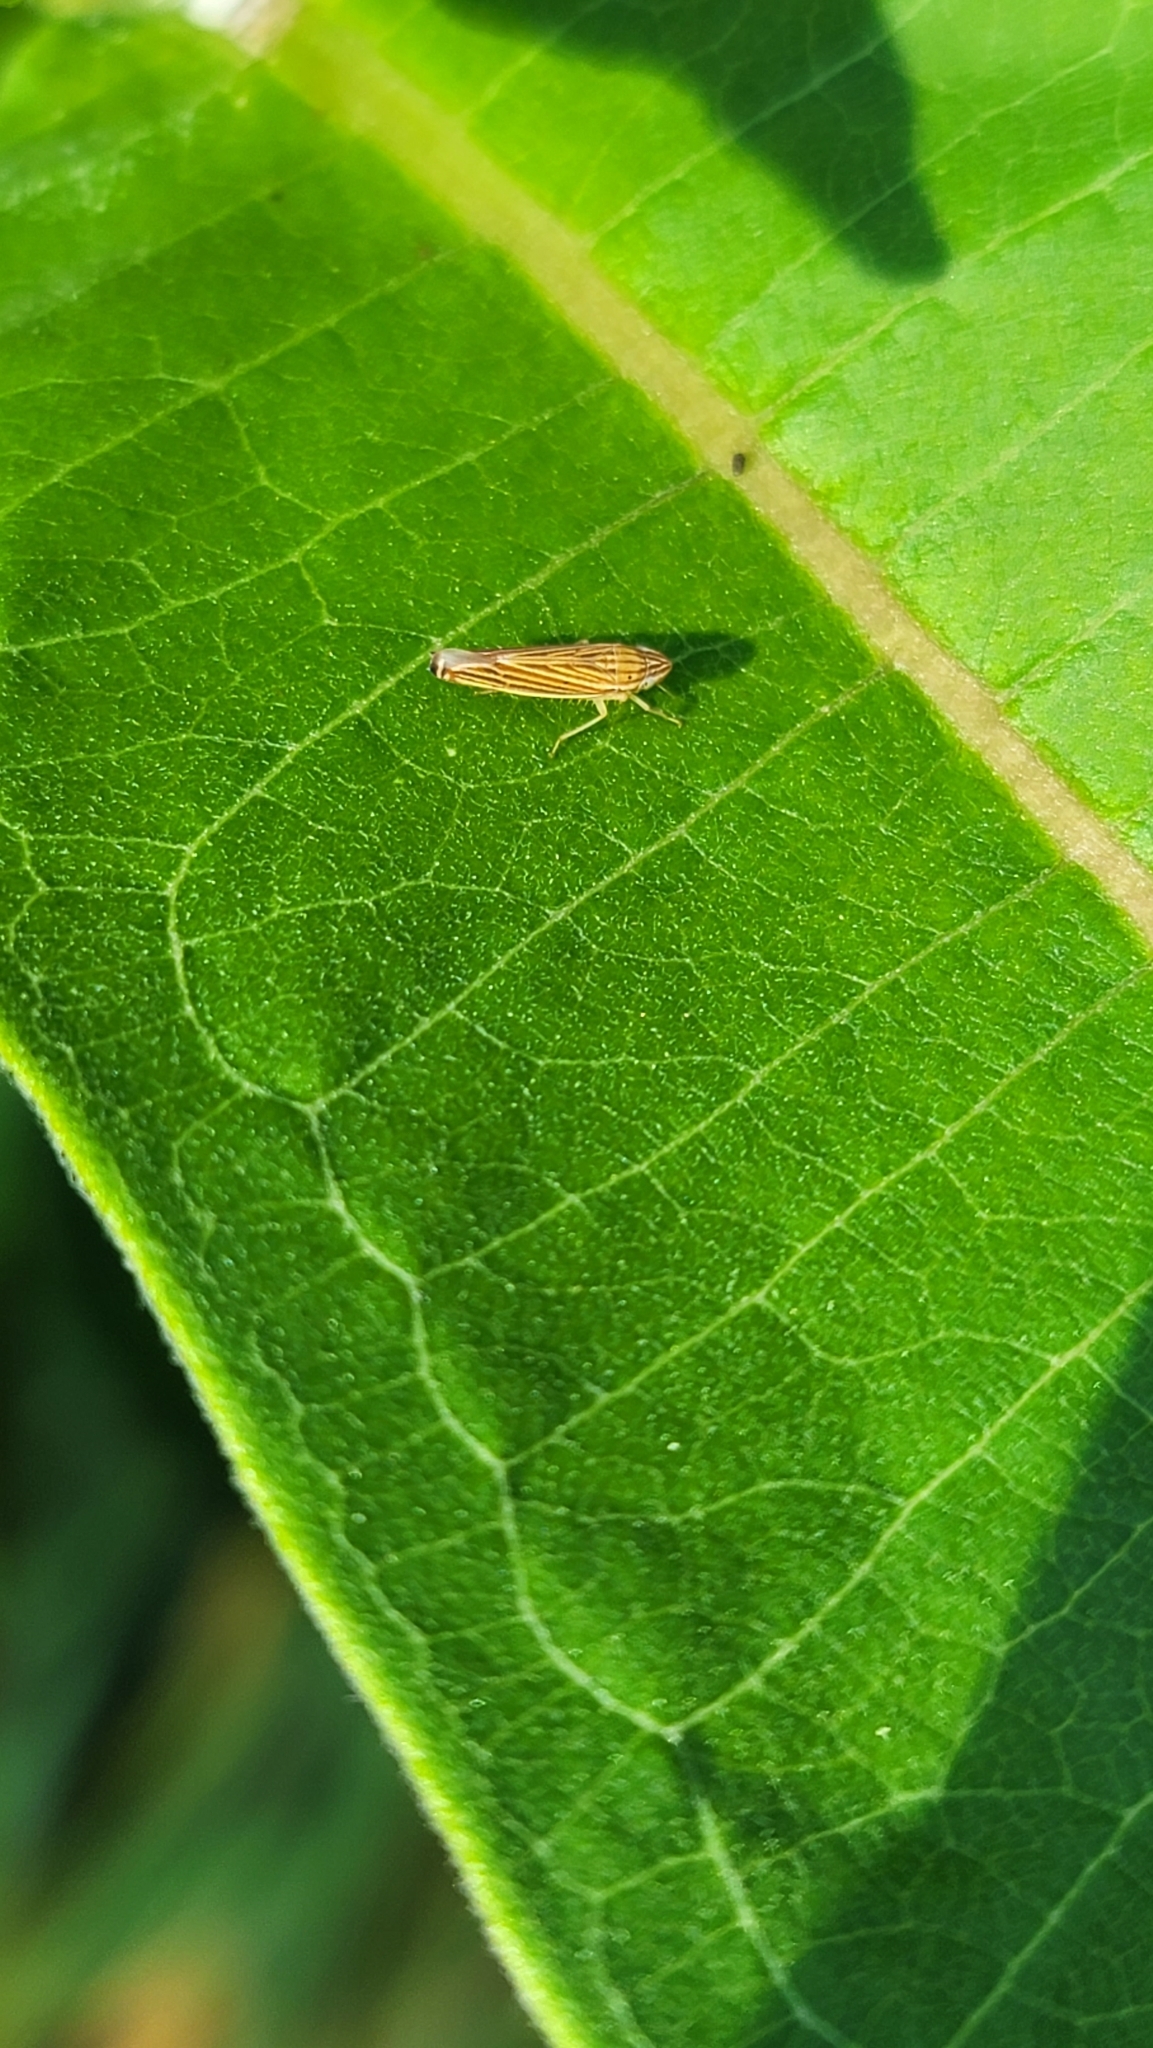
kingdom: Animalia
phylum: Arthropoda
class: Insecta
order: Hemiptera
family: Cicadellidae
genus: Sibovia
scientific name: Sibovia occatoria
